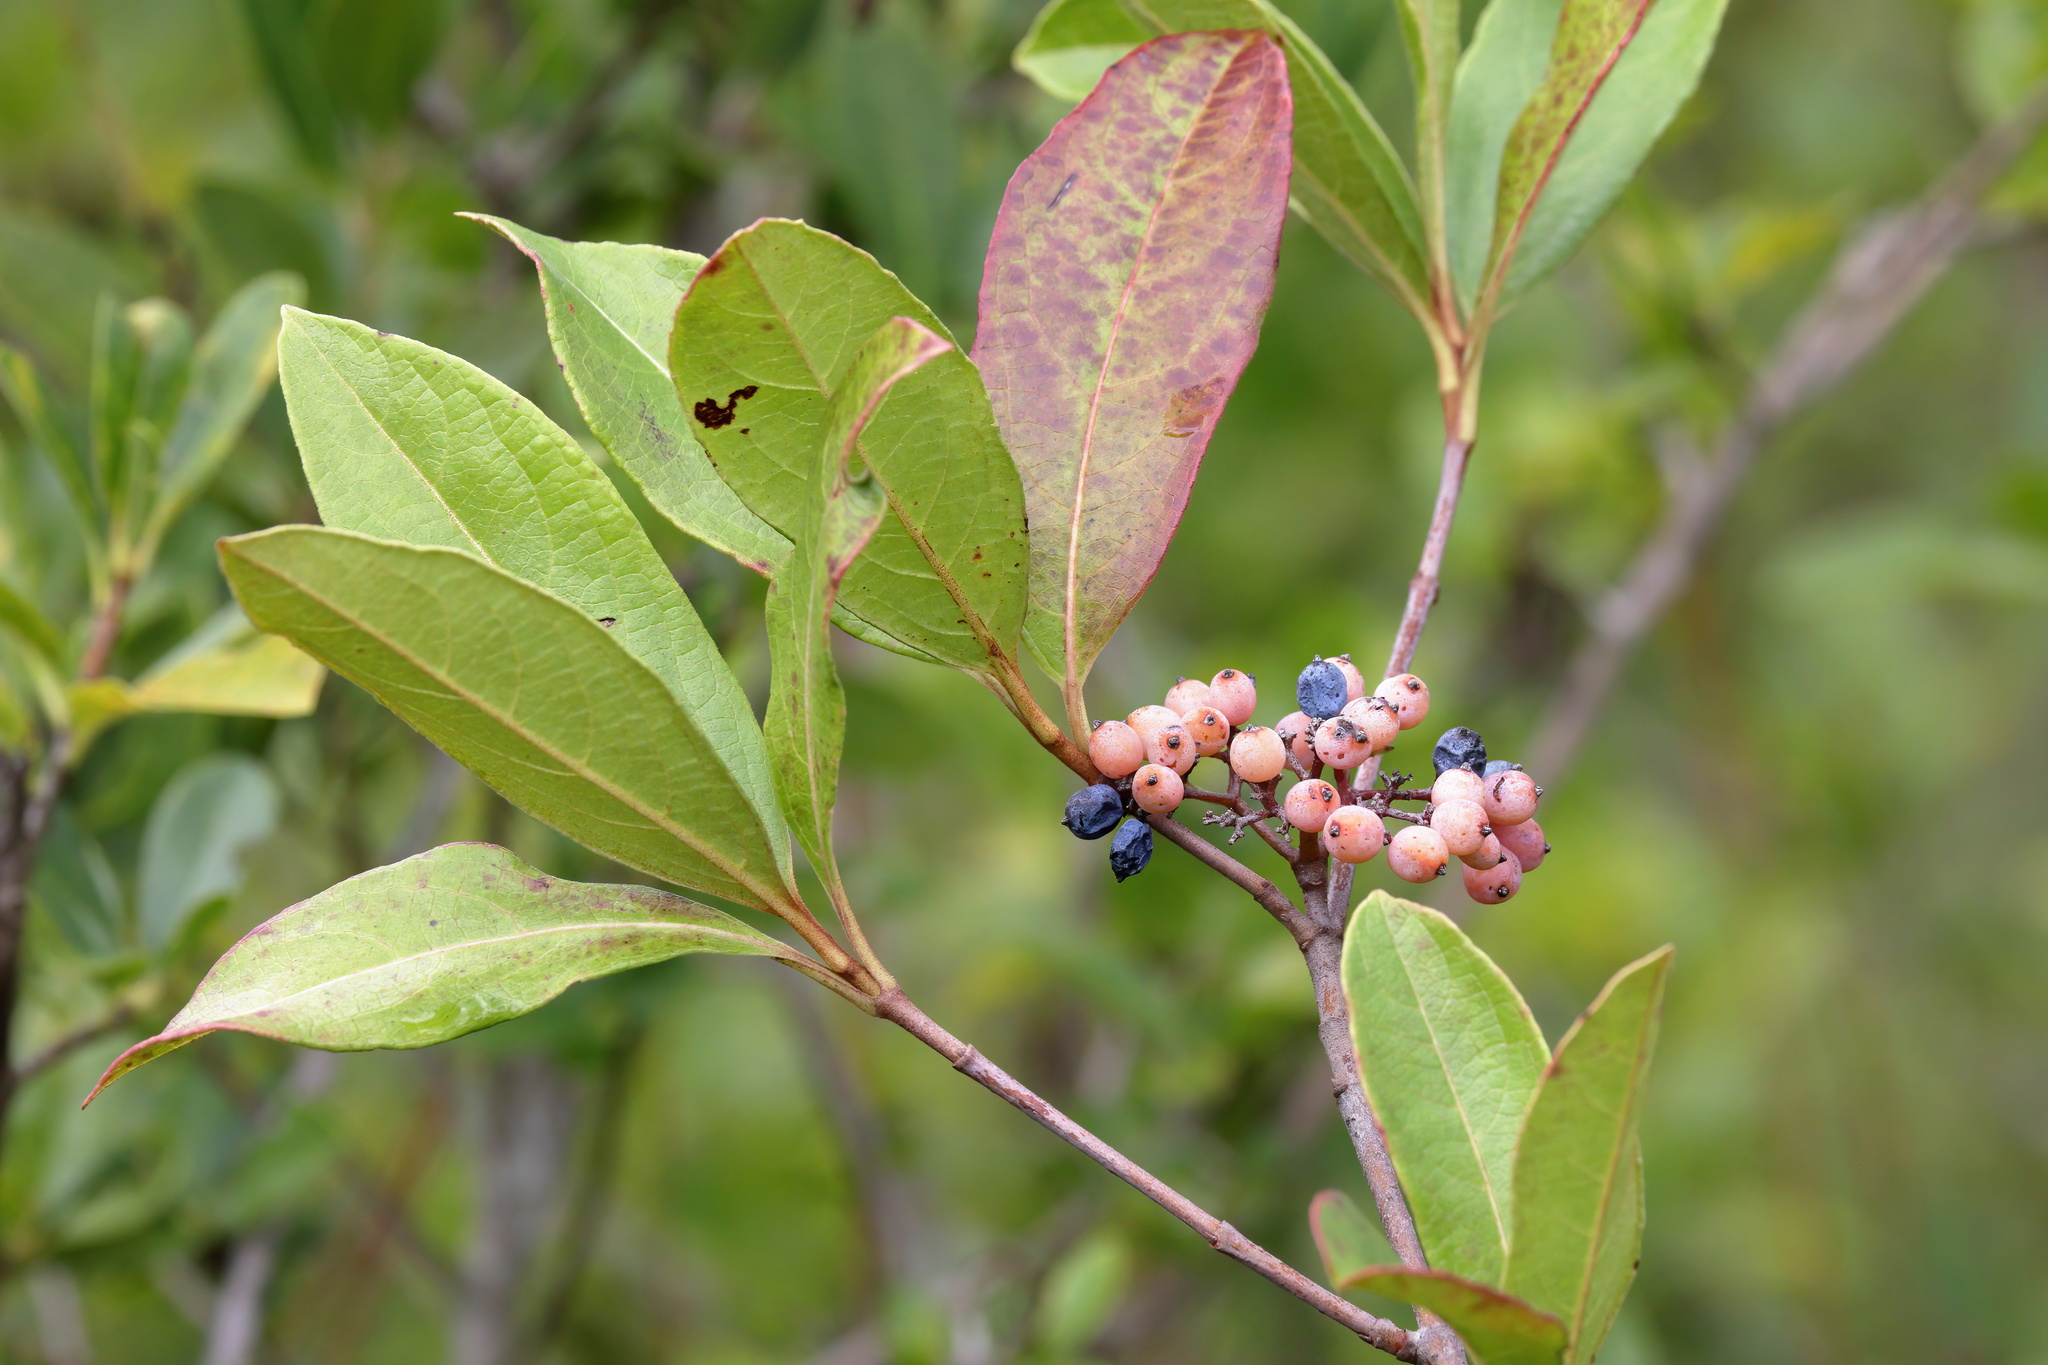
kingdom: Plantae
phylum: Tracheophyta
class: Magnoliopsida
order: Dipsacales
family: Viburnaceae
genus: Viburnum
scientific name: Viburnum nudum
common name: Possum haw
